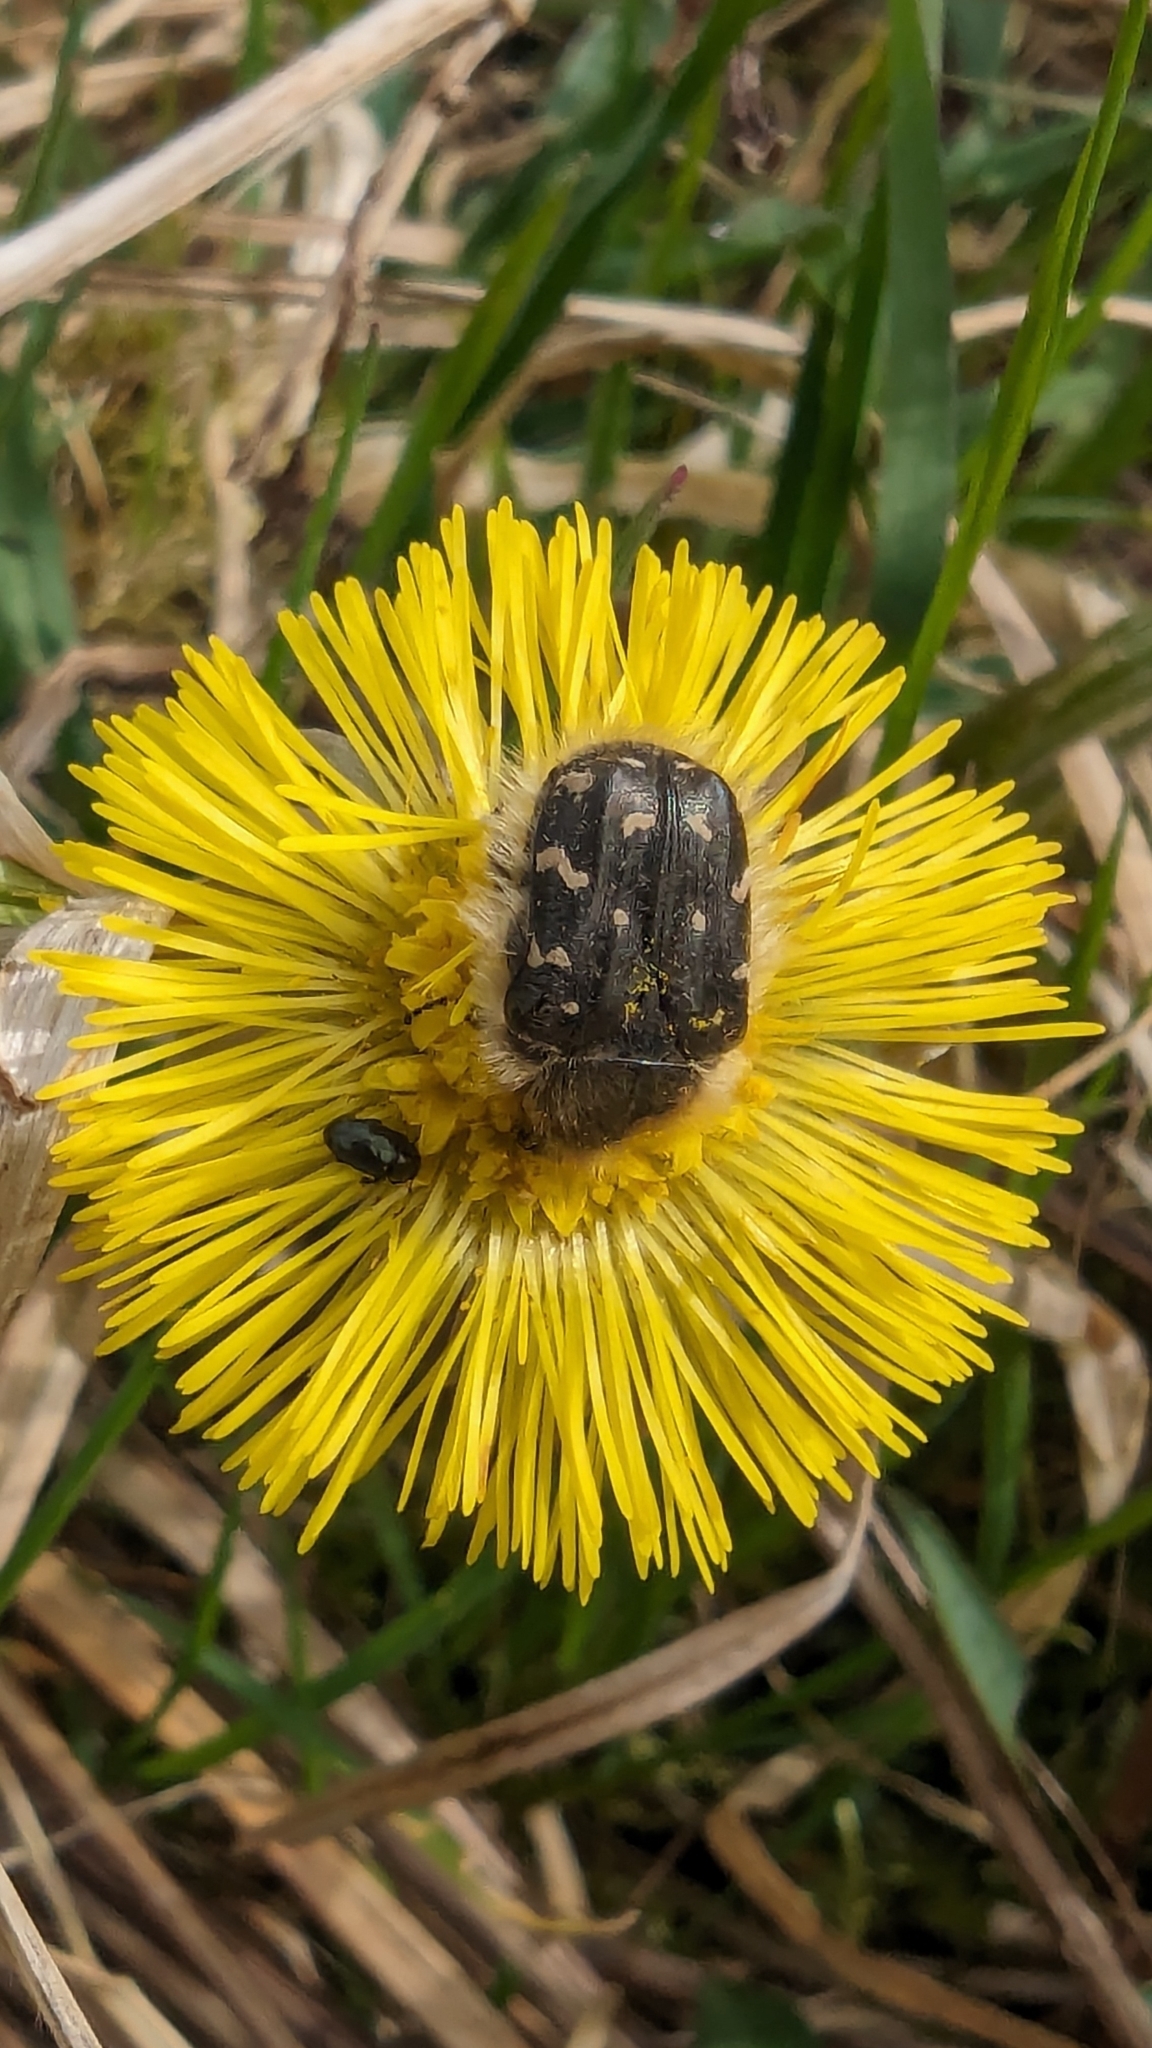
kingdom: Animalia
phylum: Arthropoda
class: Insecta
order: Coleoptera
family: Scarabaeidae
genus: Tropinota
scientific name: Tropinota hirta
